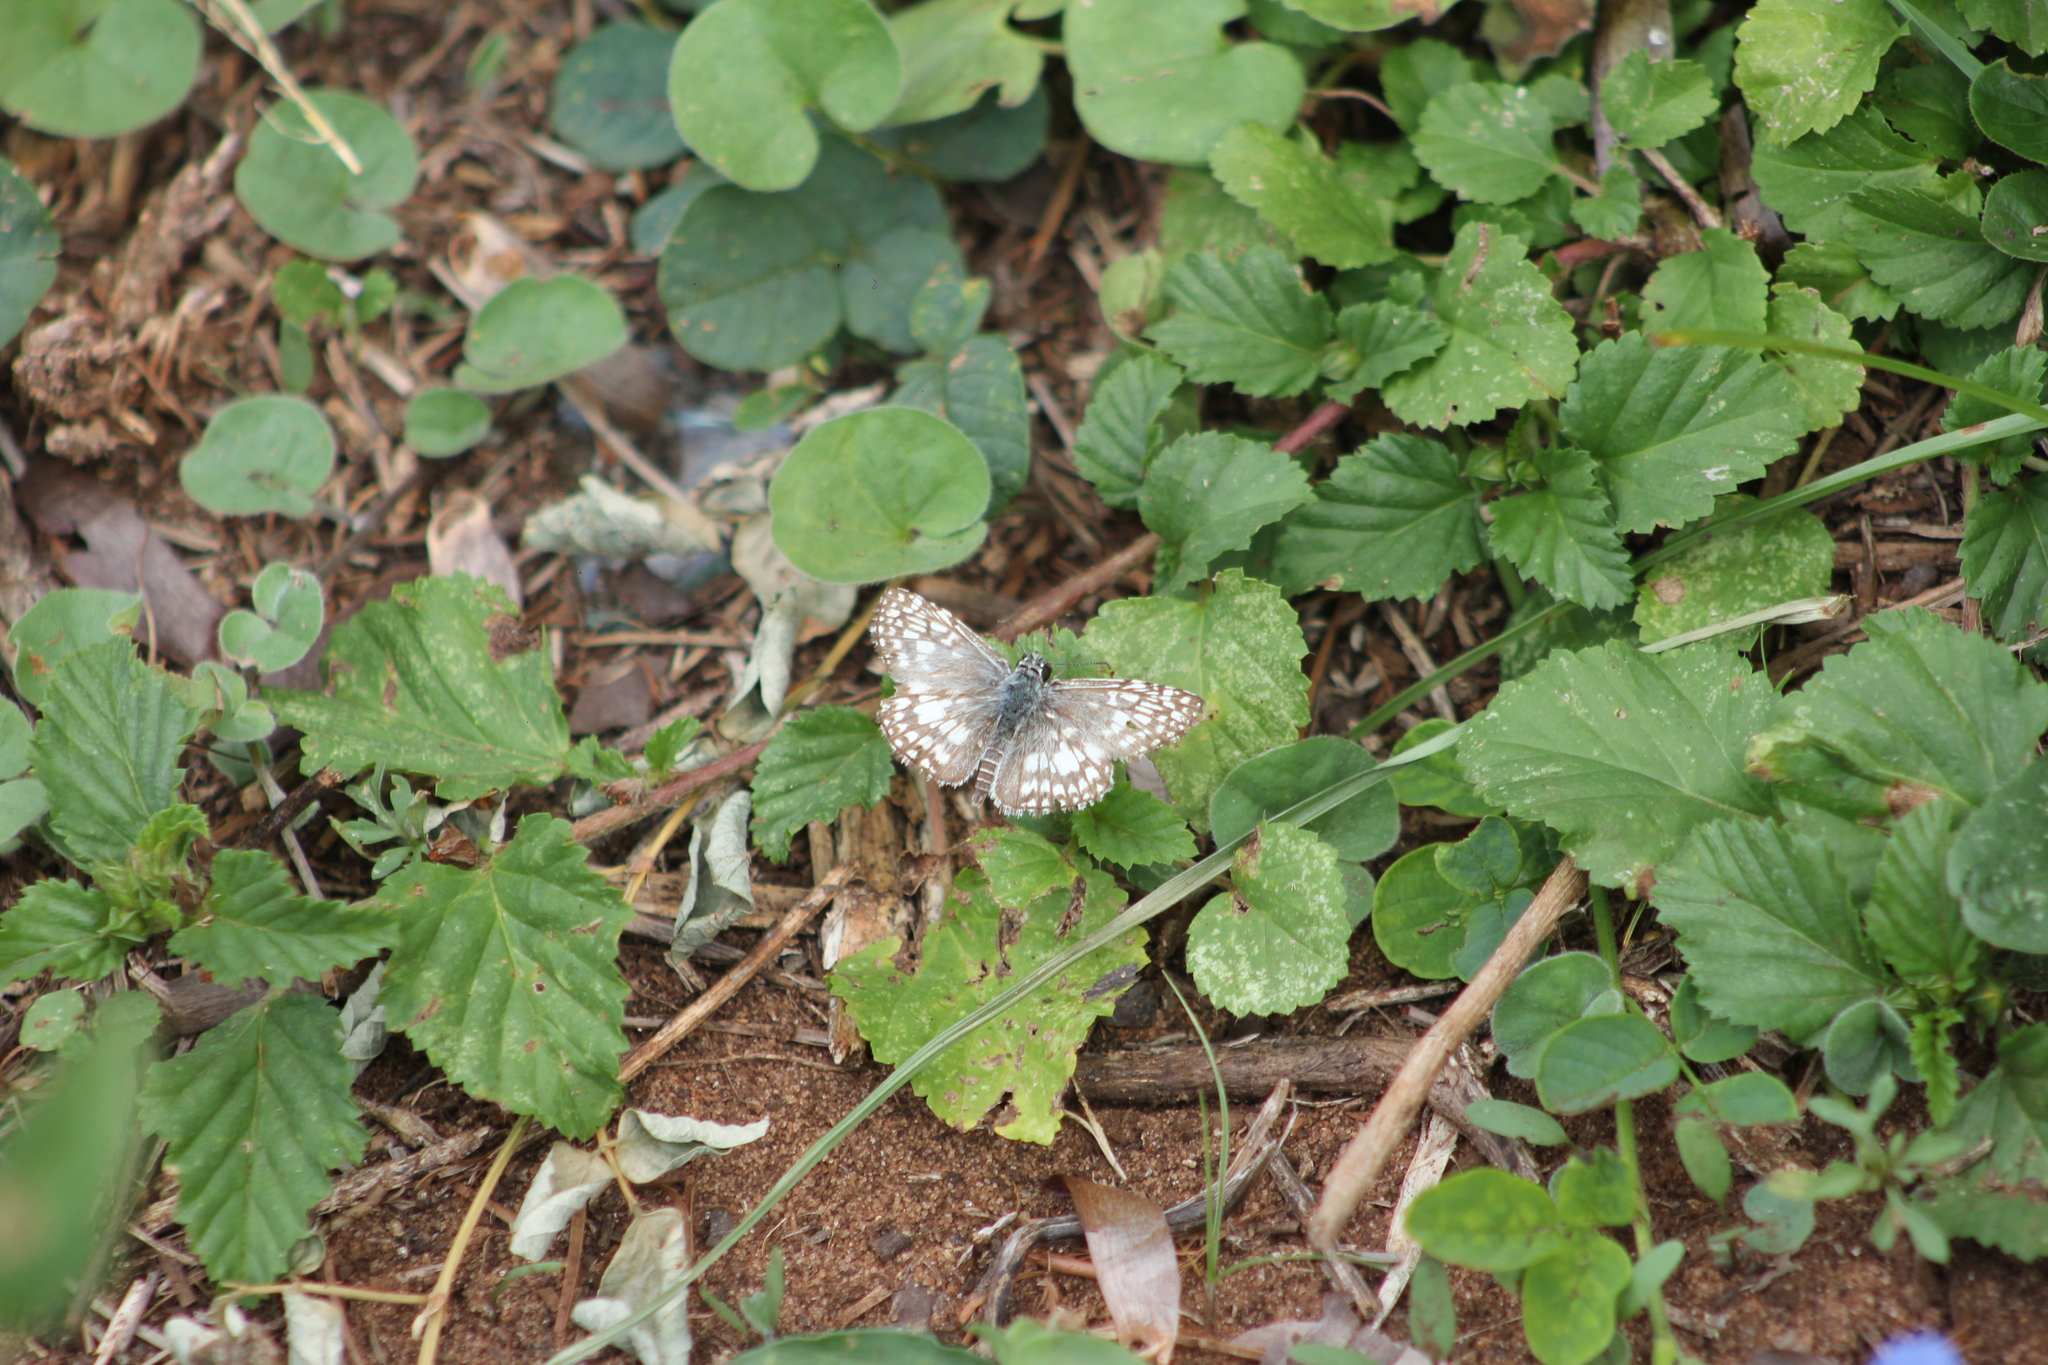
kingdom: Animalia
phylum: Arthropoda
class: Insecta
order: Lepidoptera
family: Hesperiidae
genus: Pyrgus
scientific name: Pyrgus oileus
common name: Tropical checkered-skipper
